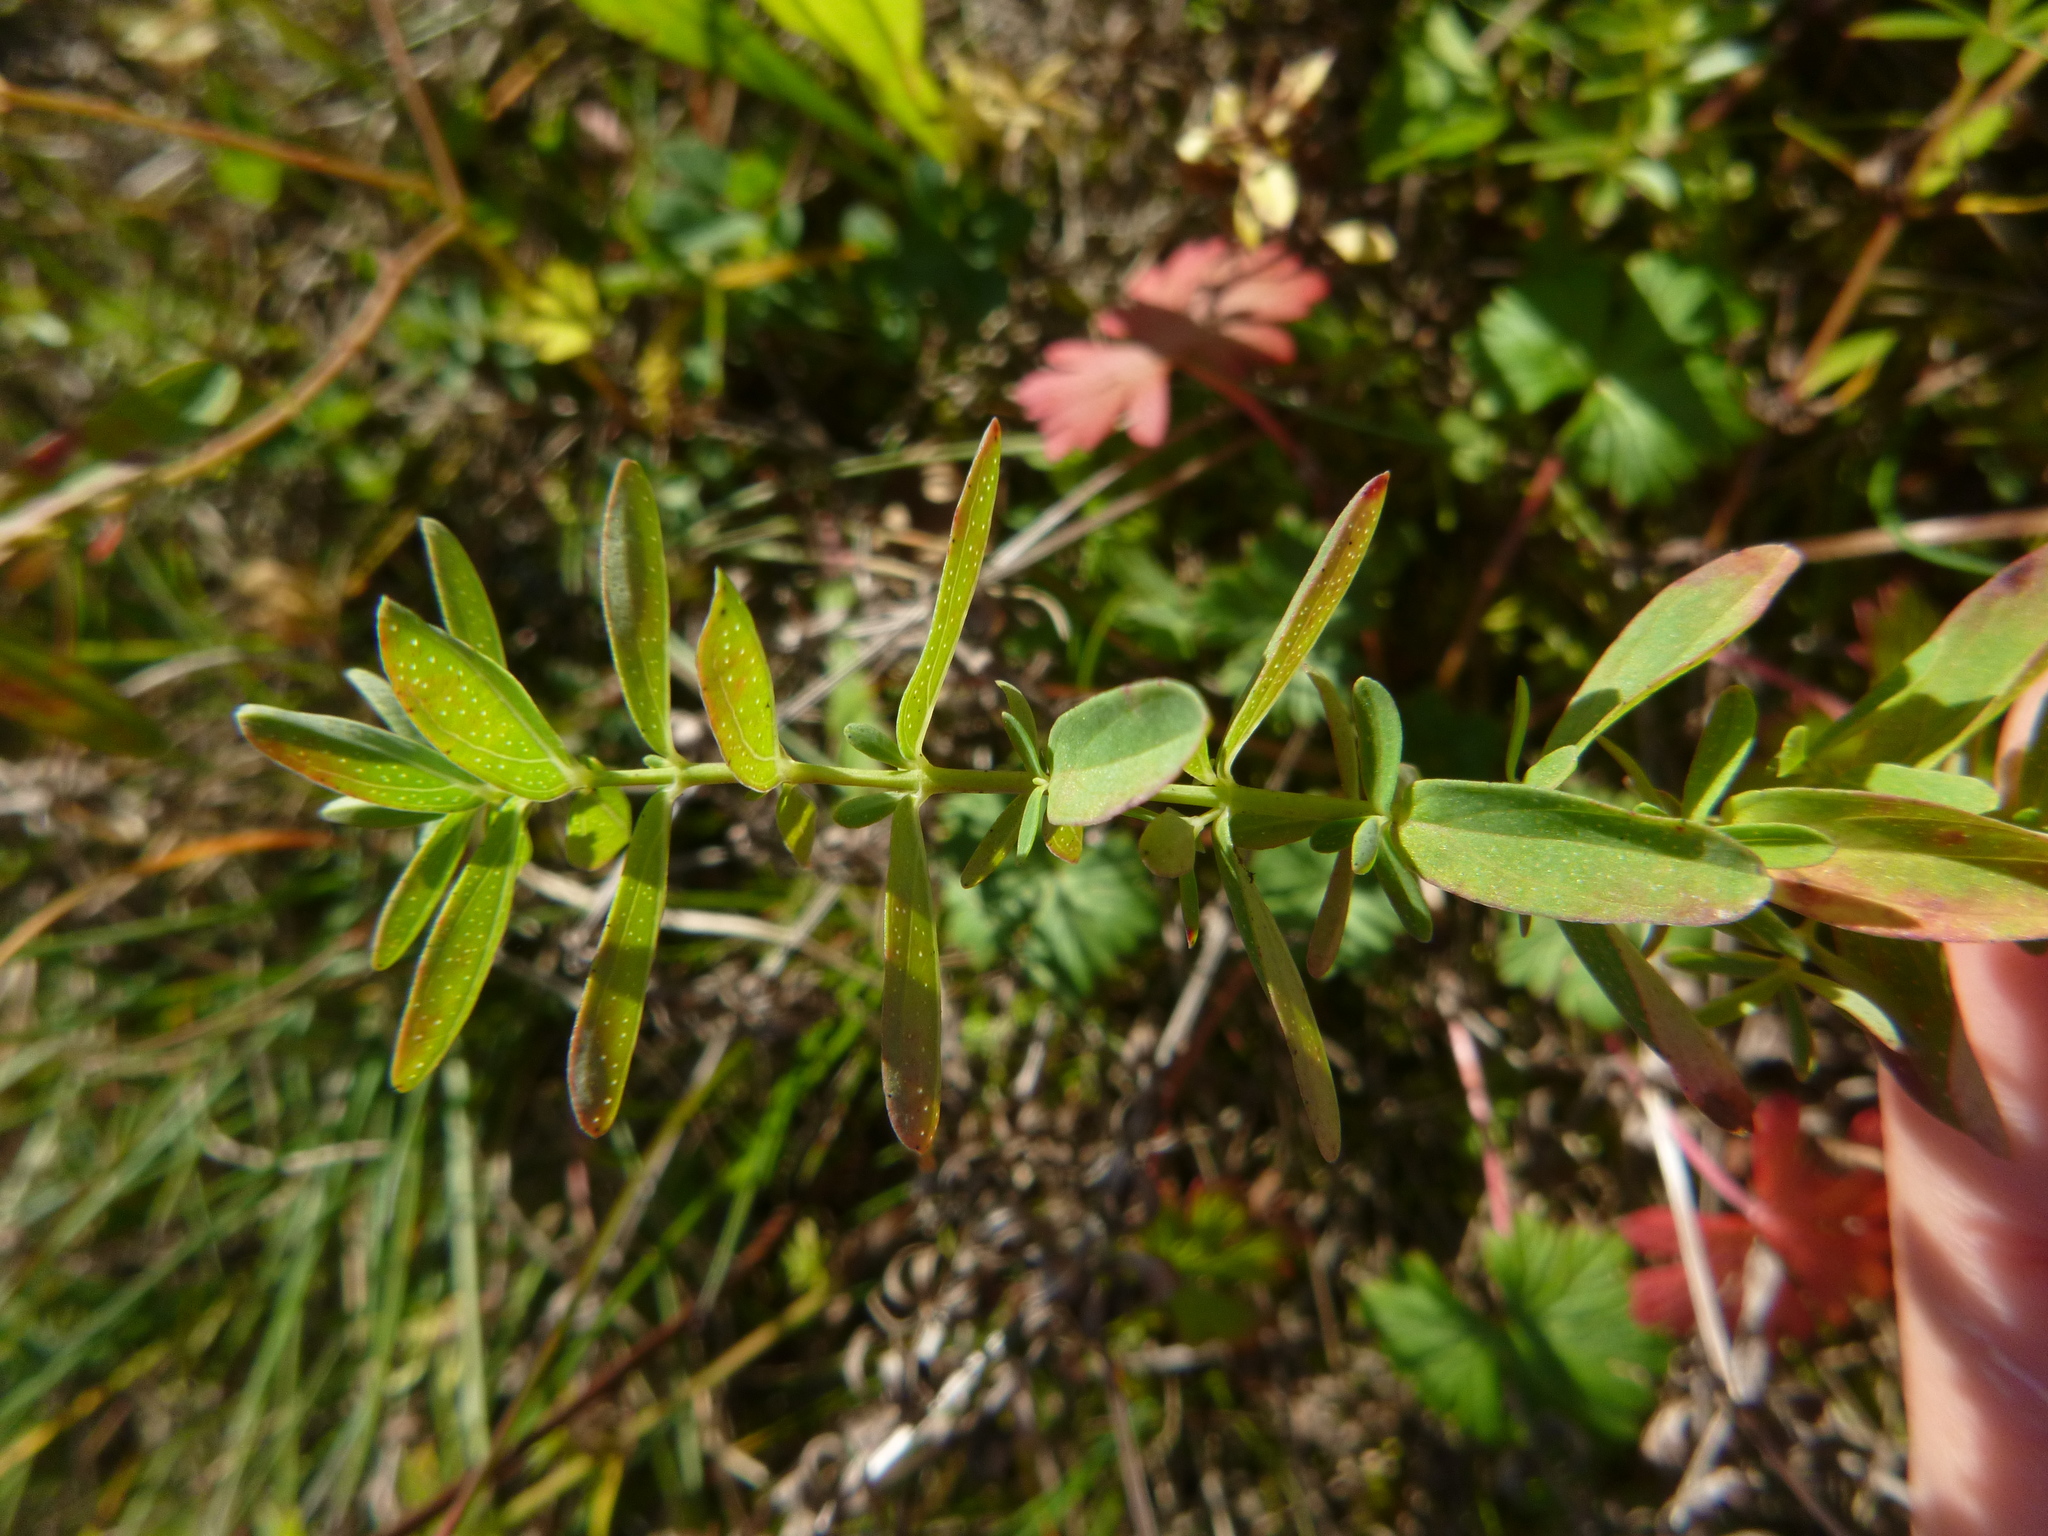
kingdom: Plantae
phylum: Tracheophyta
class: Magnoliopsida
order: Malpighiales
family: Hypericaceae
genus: Hypericum
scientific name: Hypericum perforatum
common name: Common st. johnswort
